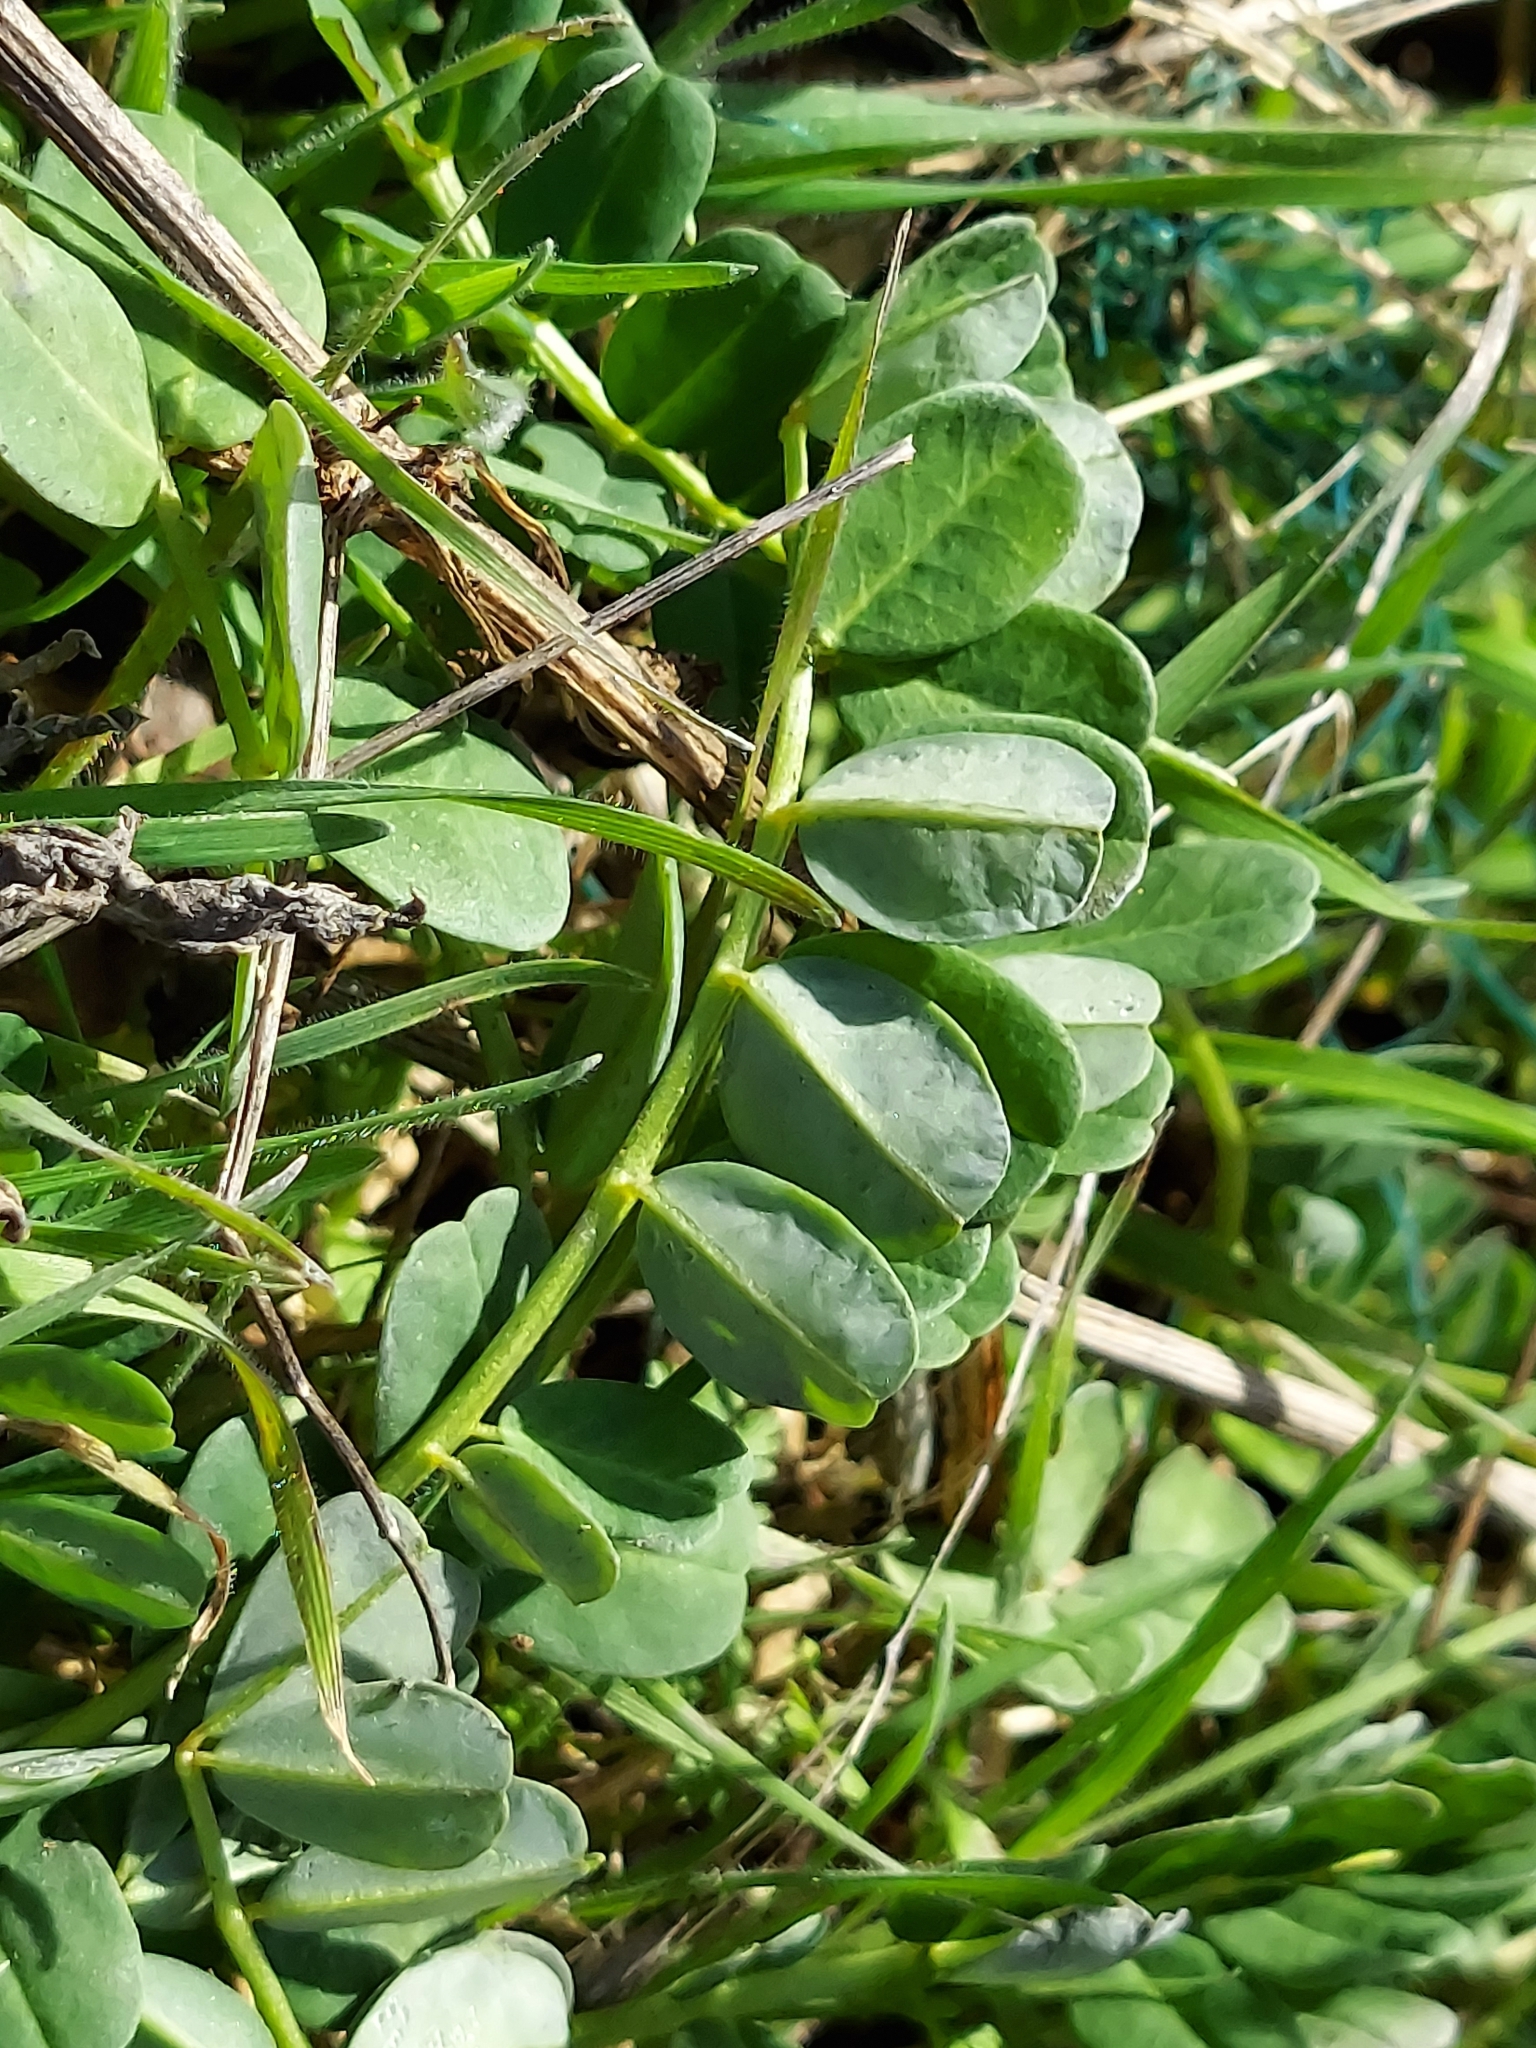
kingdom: Plantae
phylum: Tracheophyta
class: Magnoliopsida
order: Fabales
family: Fabaceae
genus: Coronilla
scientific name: Coronilla varia
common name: Crownvetch
